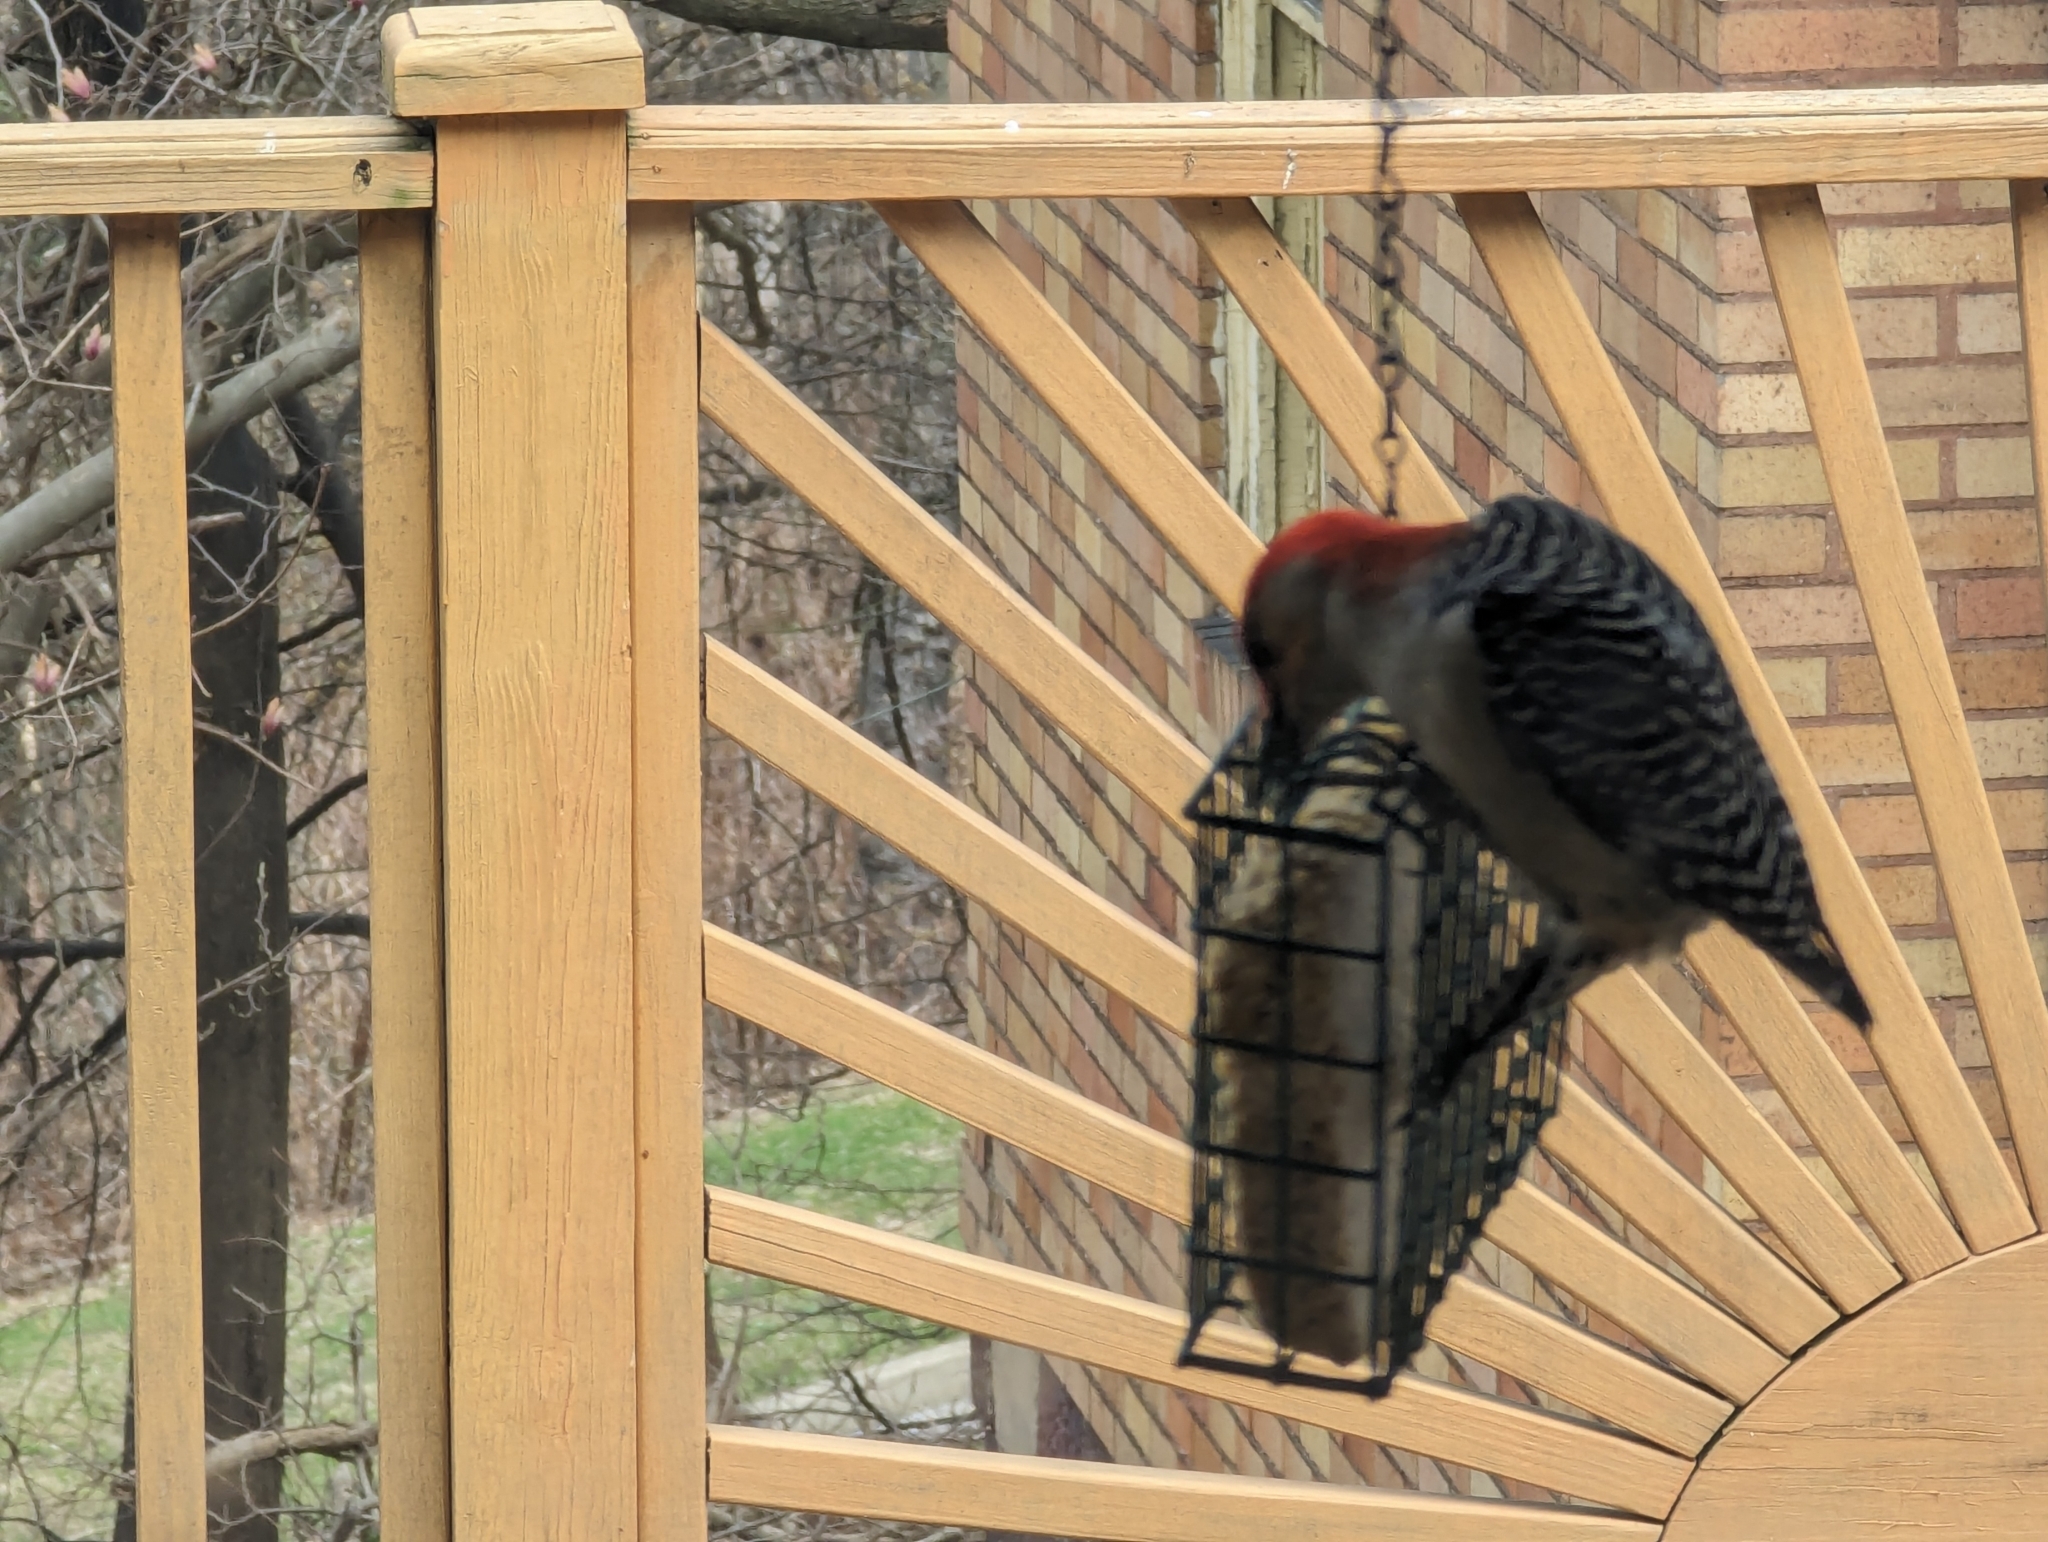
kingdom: Animalia
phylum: Chordata
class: Aves
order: Piciformes
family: Picidae
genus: Melanerpes
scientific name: Melanerpes carolinus
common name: Red-bellied woodpecker
